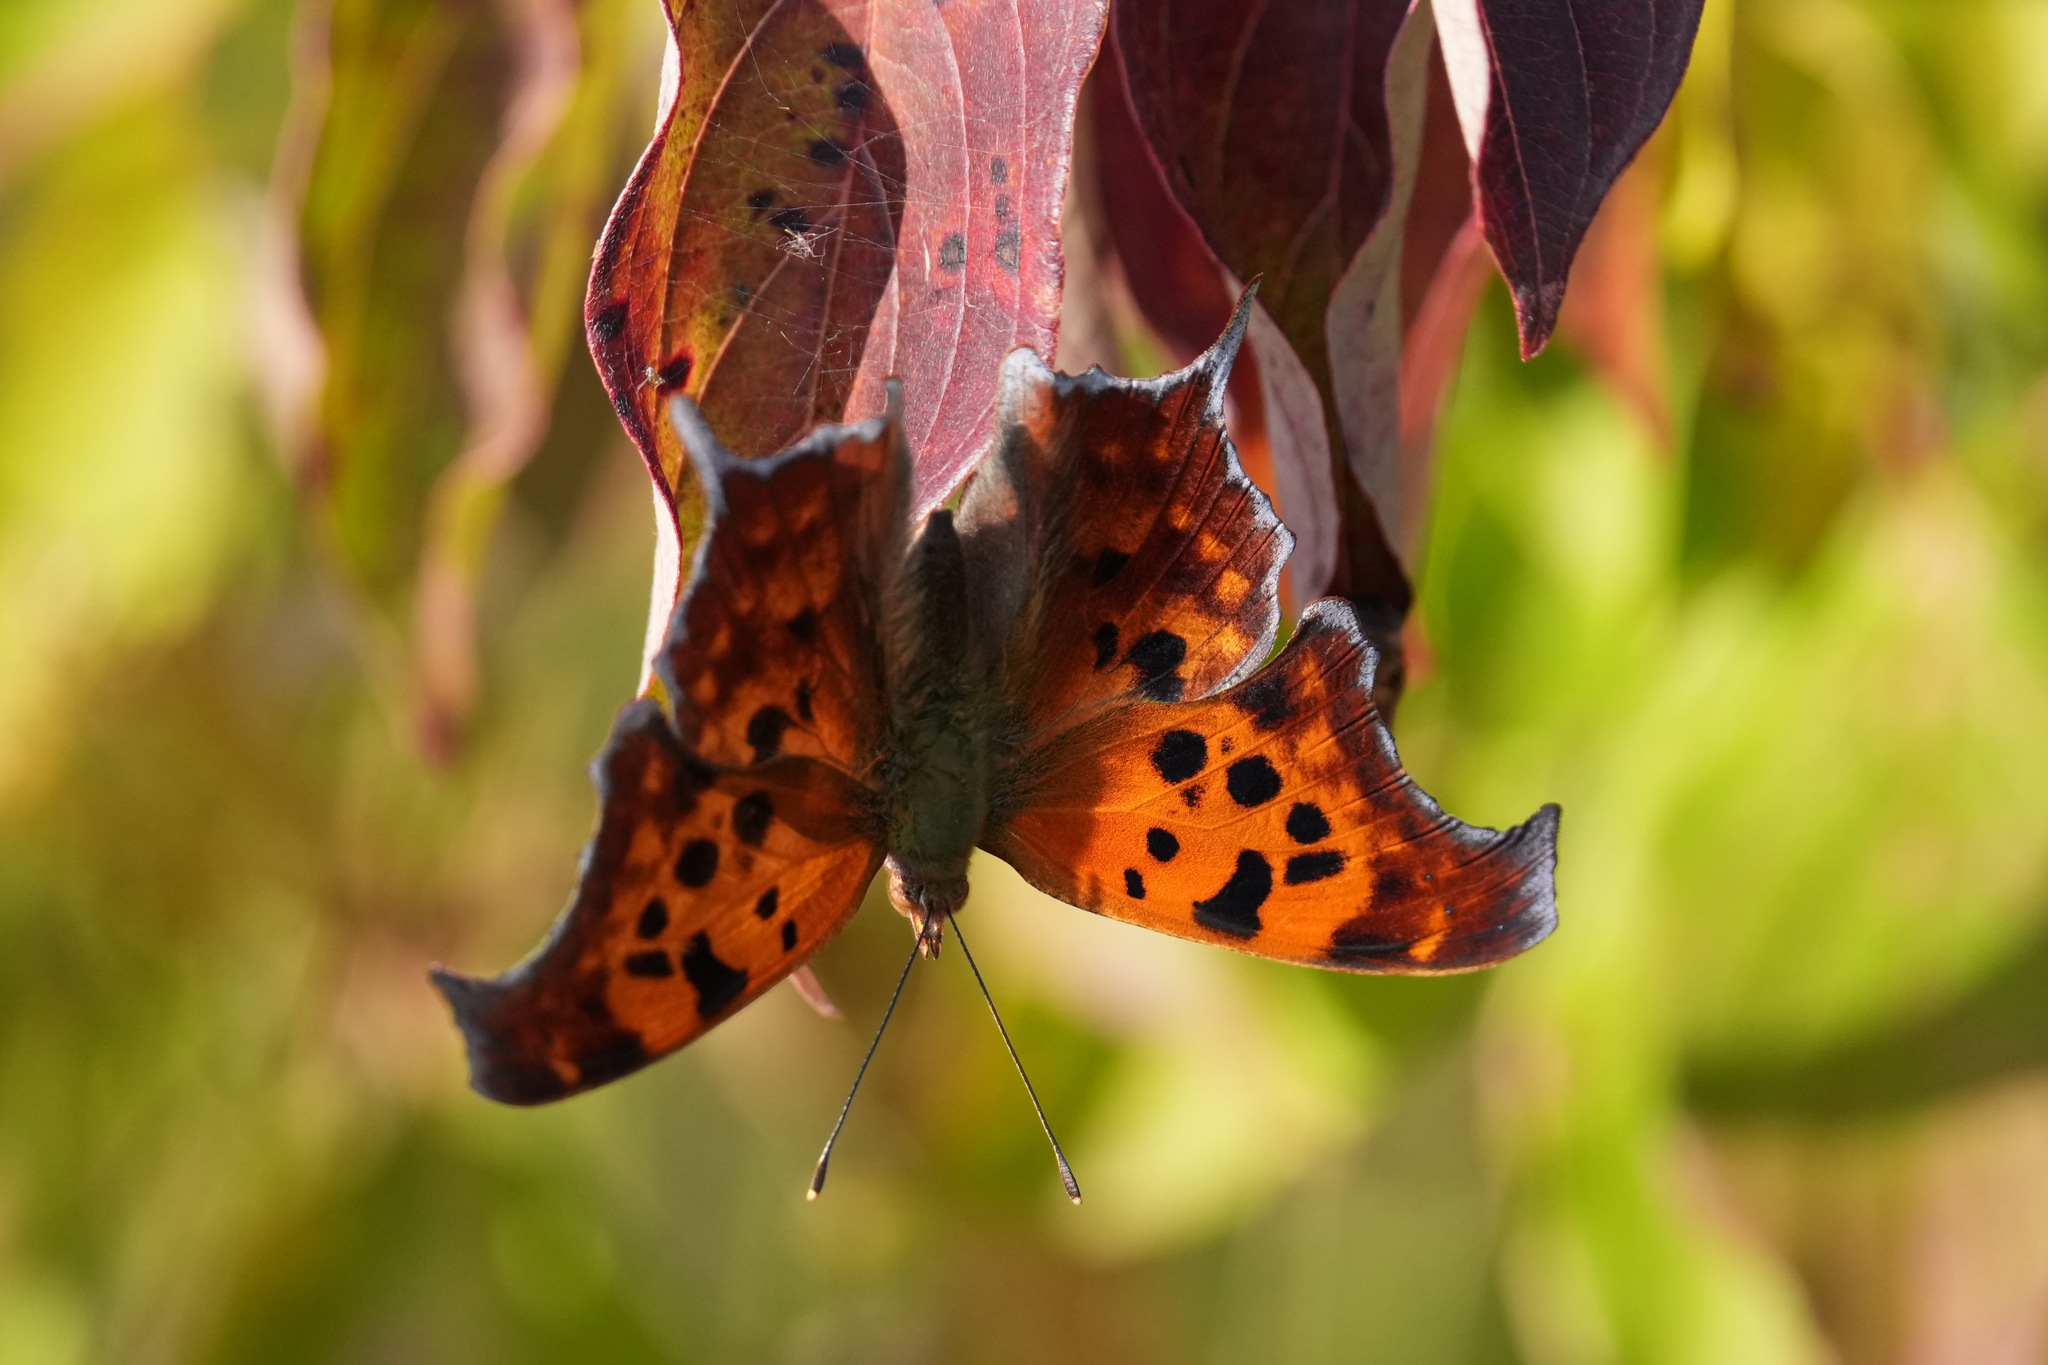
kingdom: Animalia
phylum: Arthropoda
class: Insecta
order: Lepidoptera
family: Nymphalidae
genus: Polygonia
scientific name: Polygonia interrogationis
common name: Question mark
